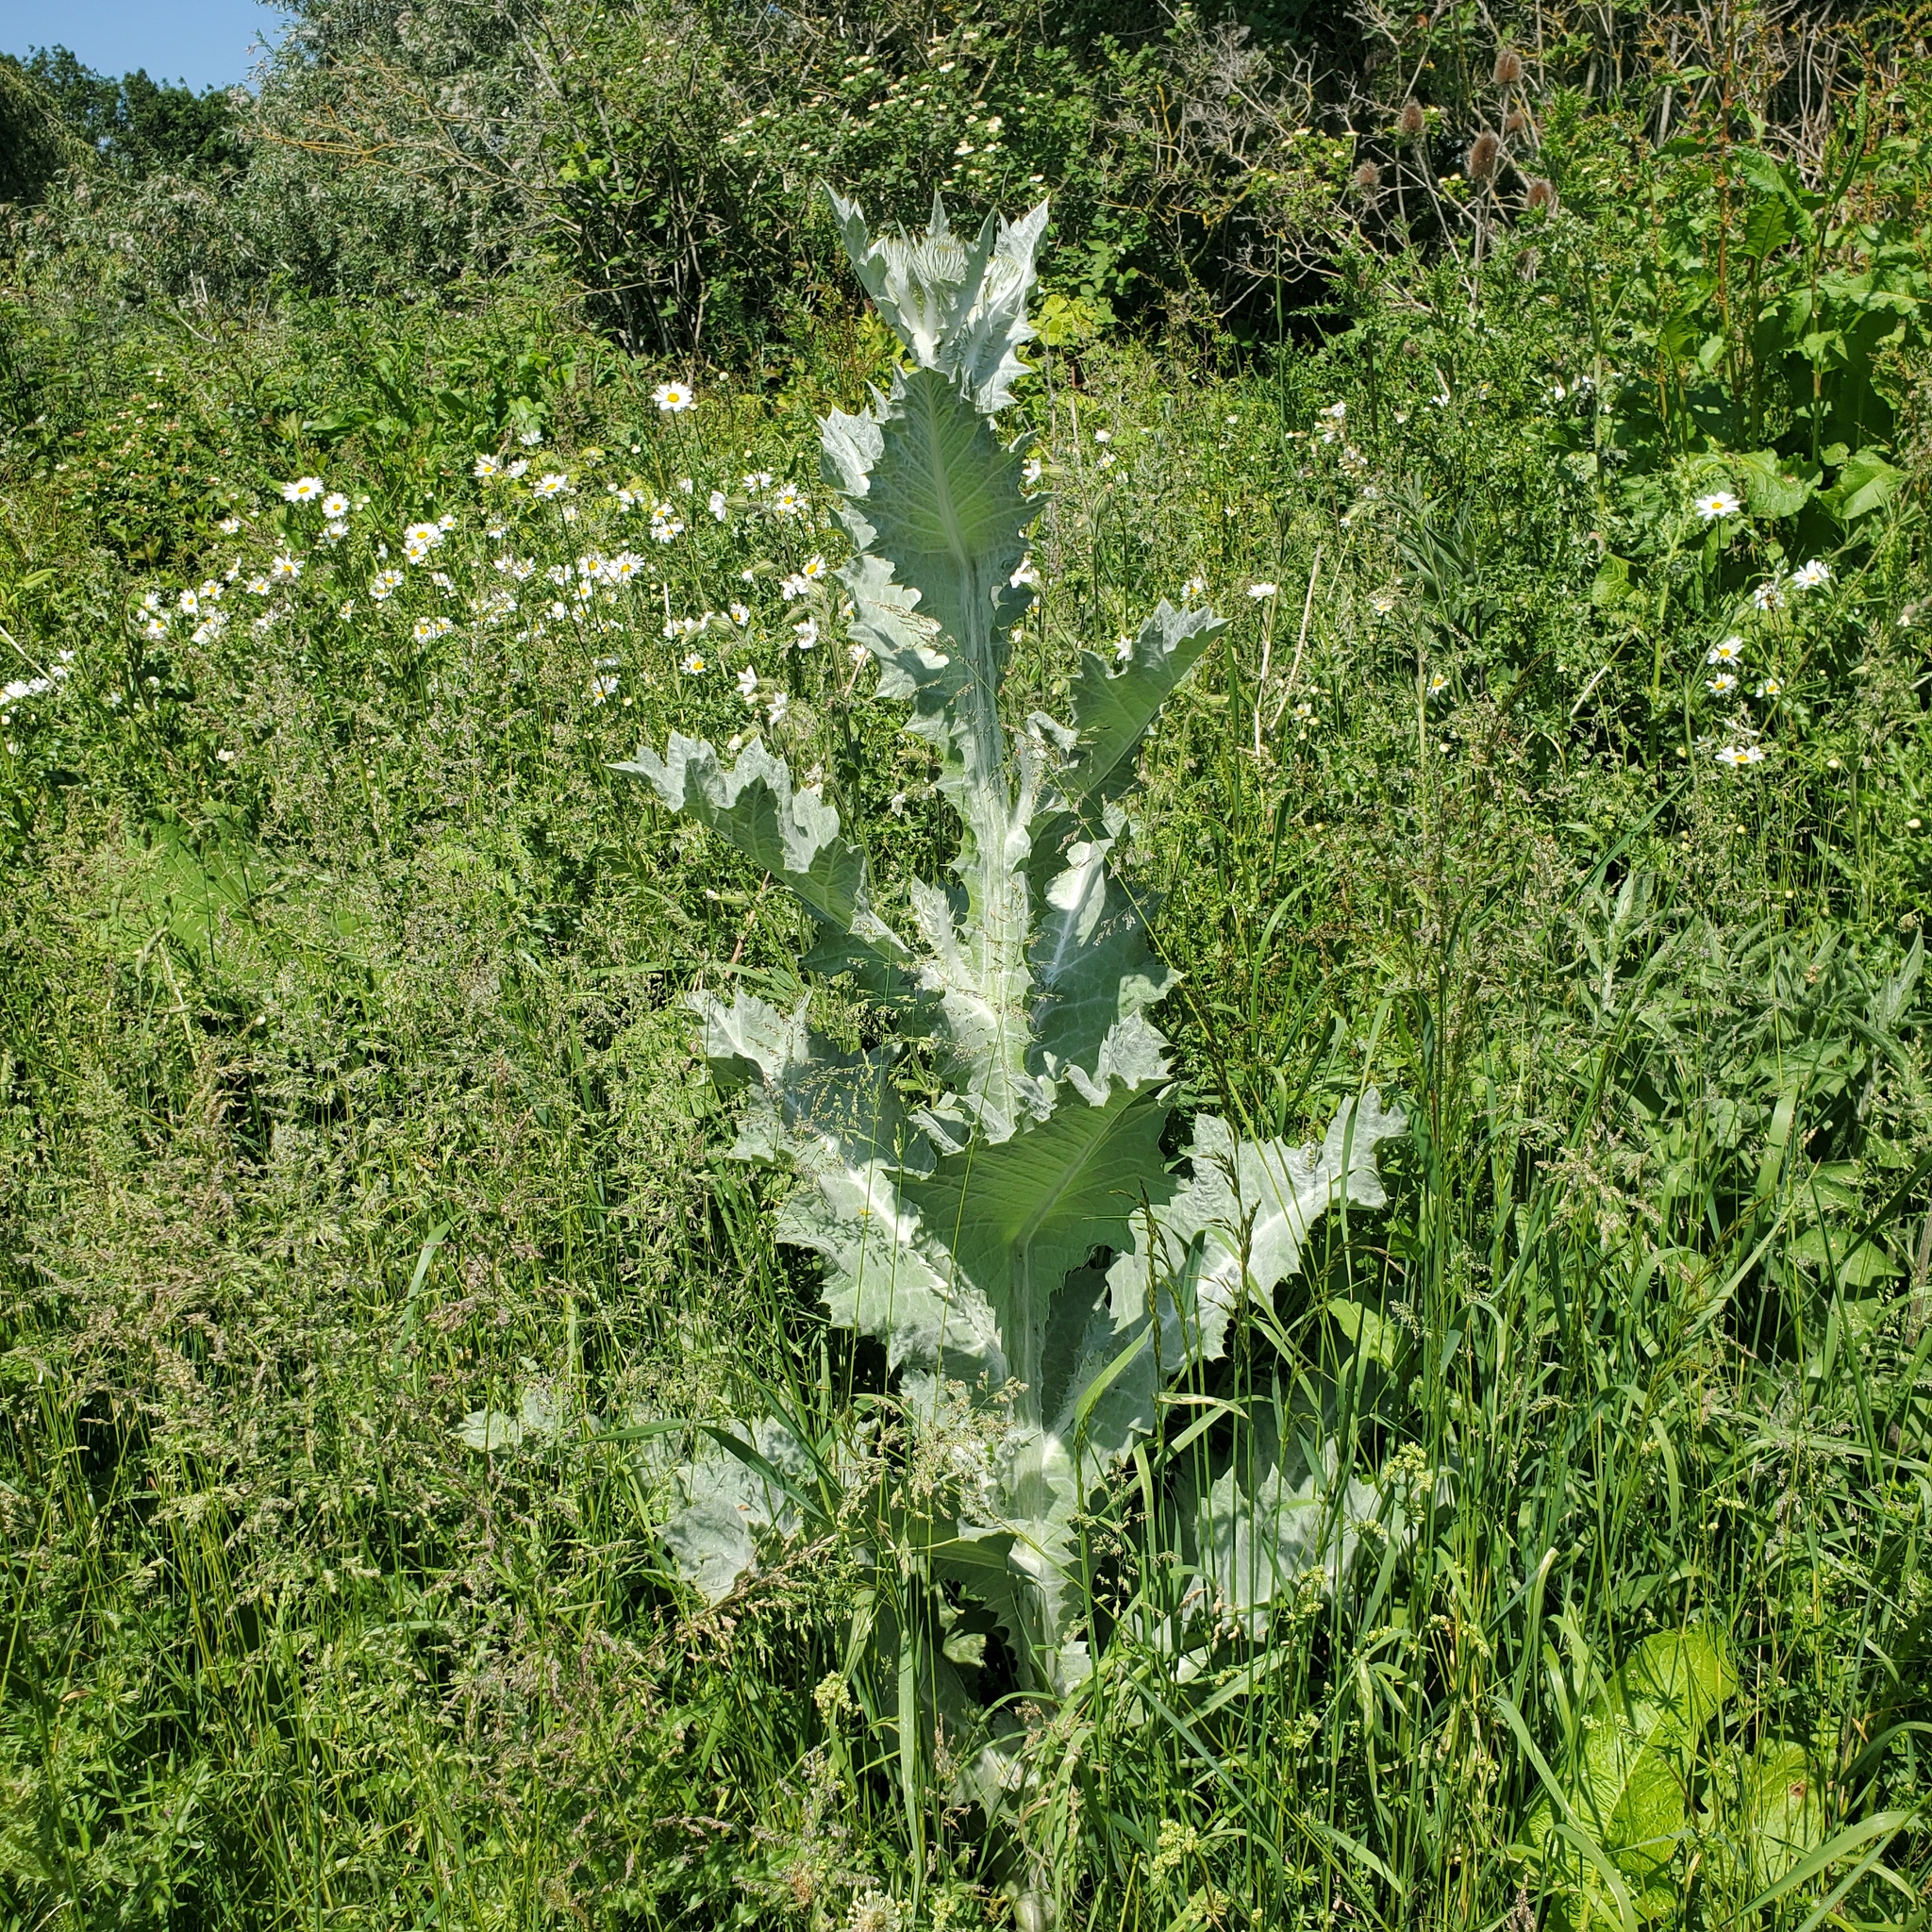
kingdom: Plantae
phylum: Tracheophyta
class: Magnoliopsida
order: Asterales
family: Asteraceae
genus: Onopordum
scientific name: Onopordum acanthium
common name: Scotch thistle
